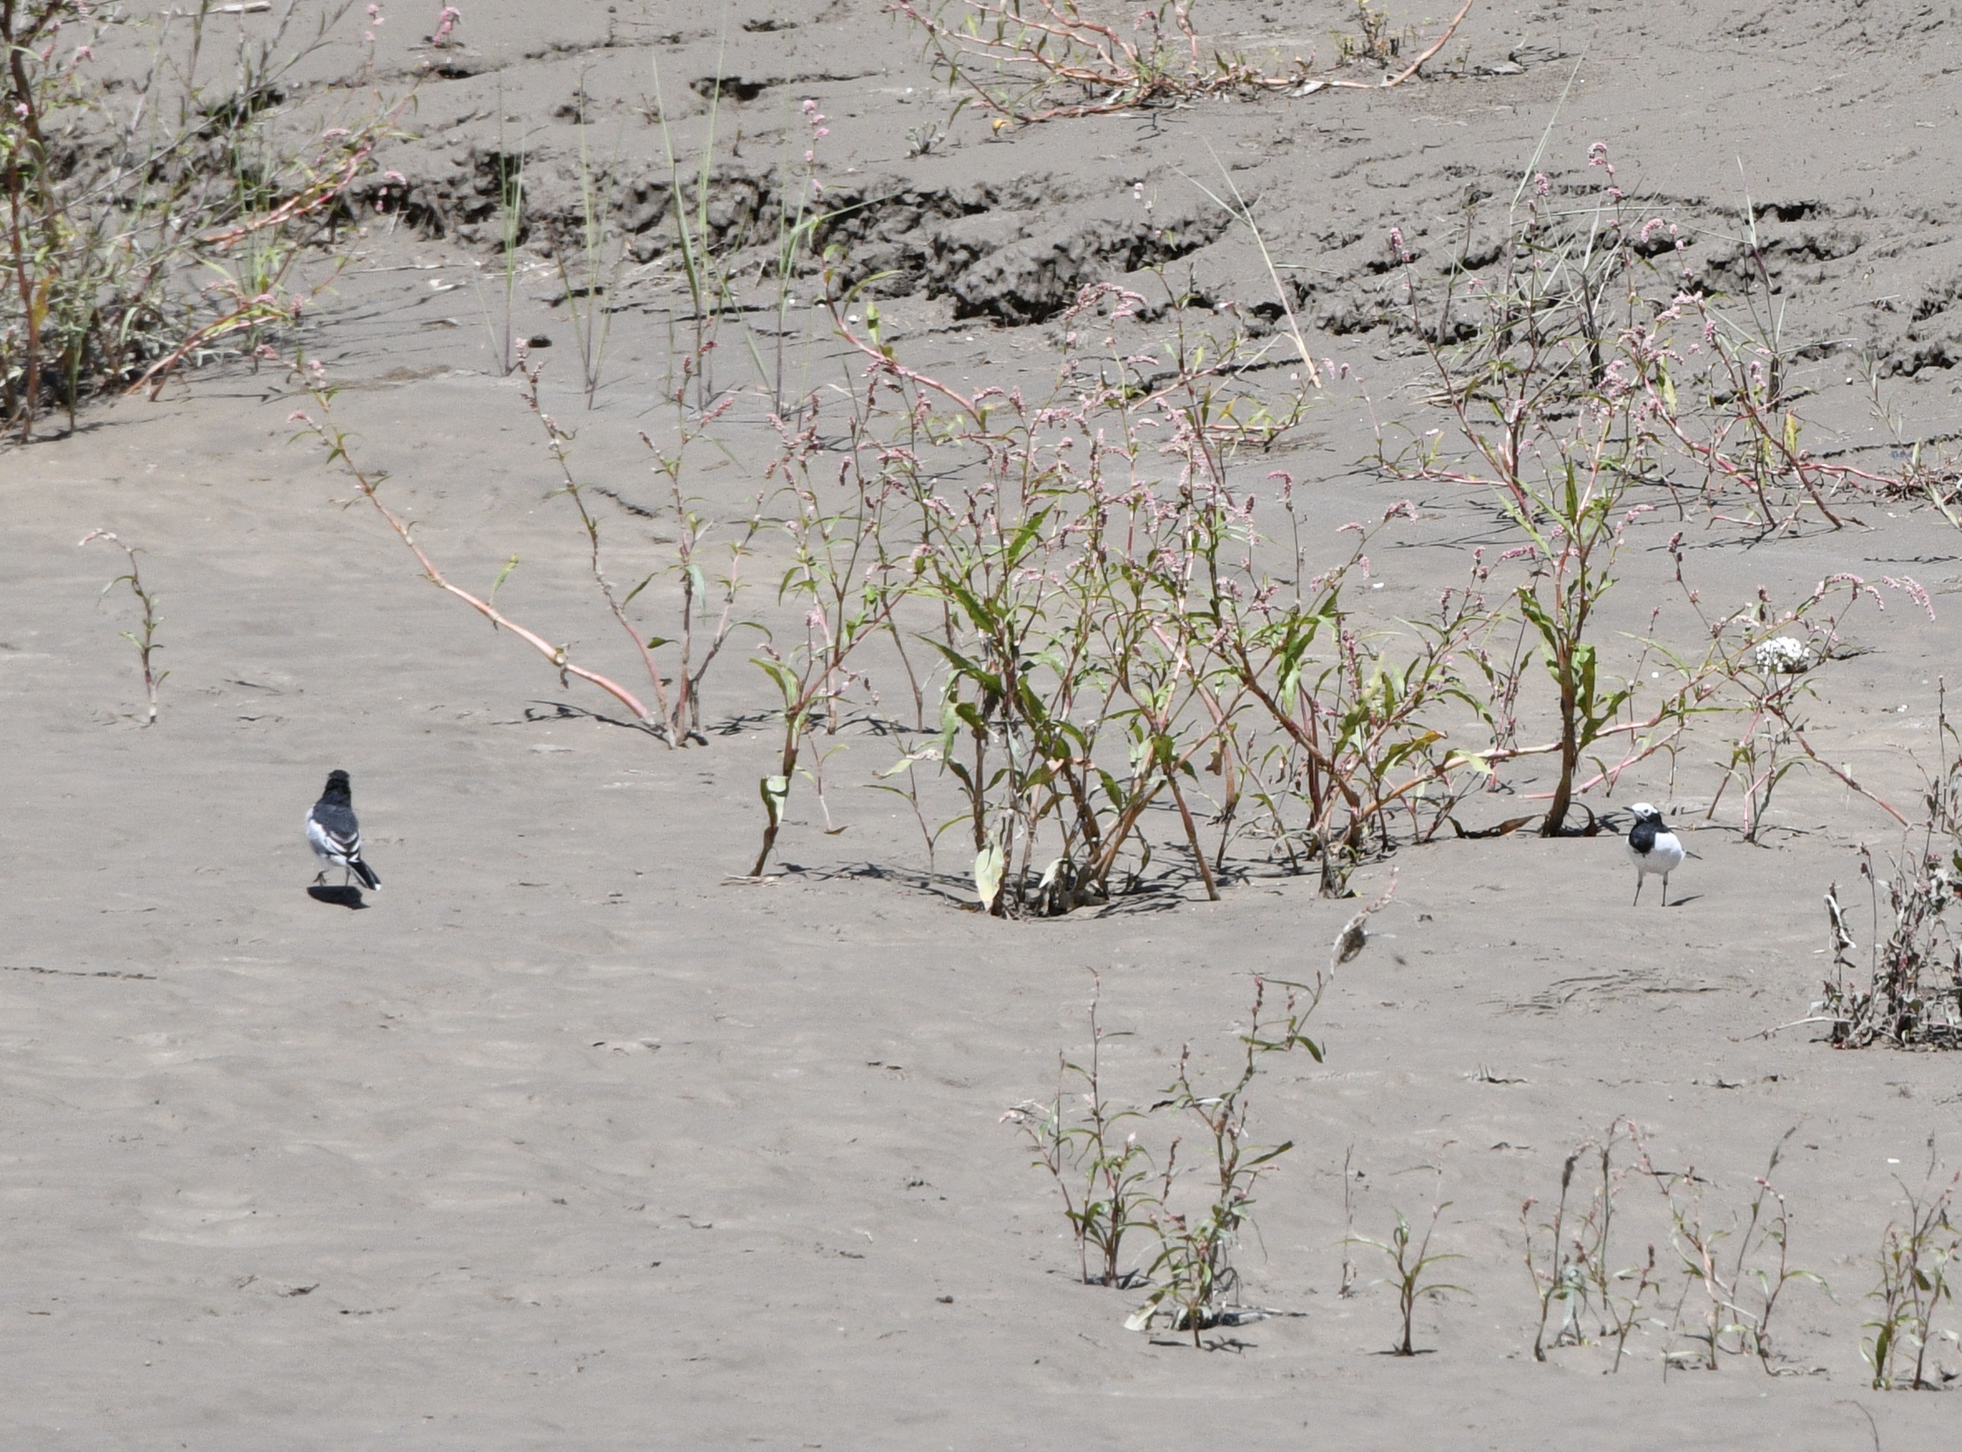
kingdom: Animalia
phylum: Chordata
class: Aves
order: Passeriformes
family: Motacillidae
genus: Motacilla
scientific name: Motacilla alba
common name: White wagtail
